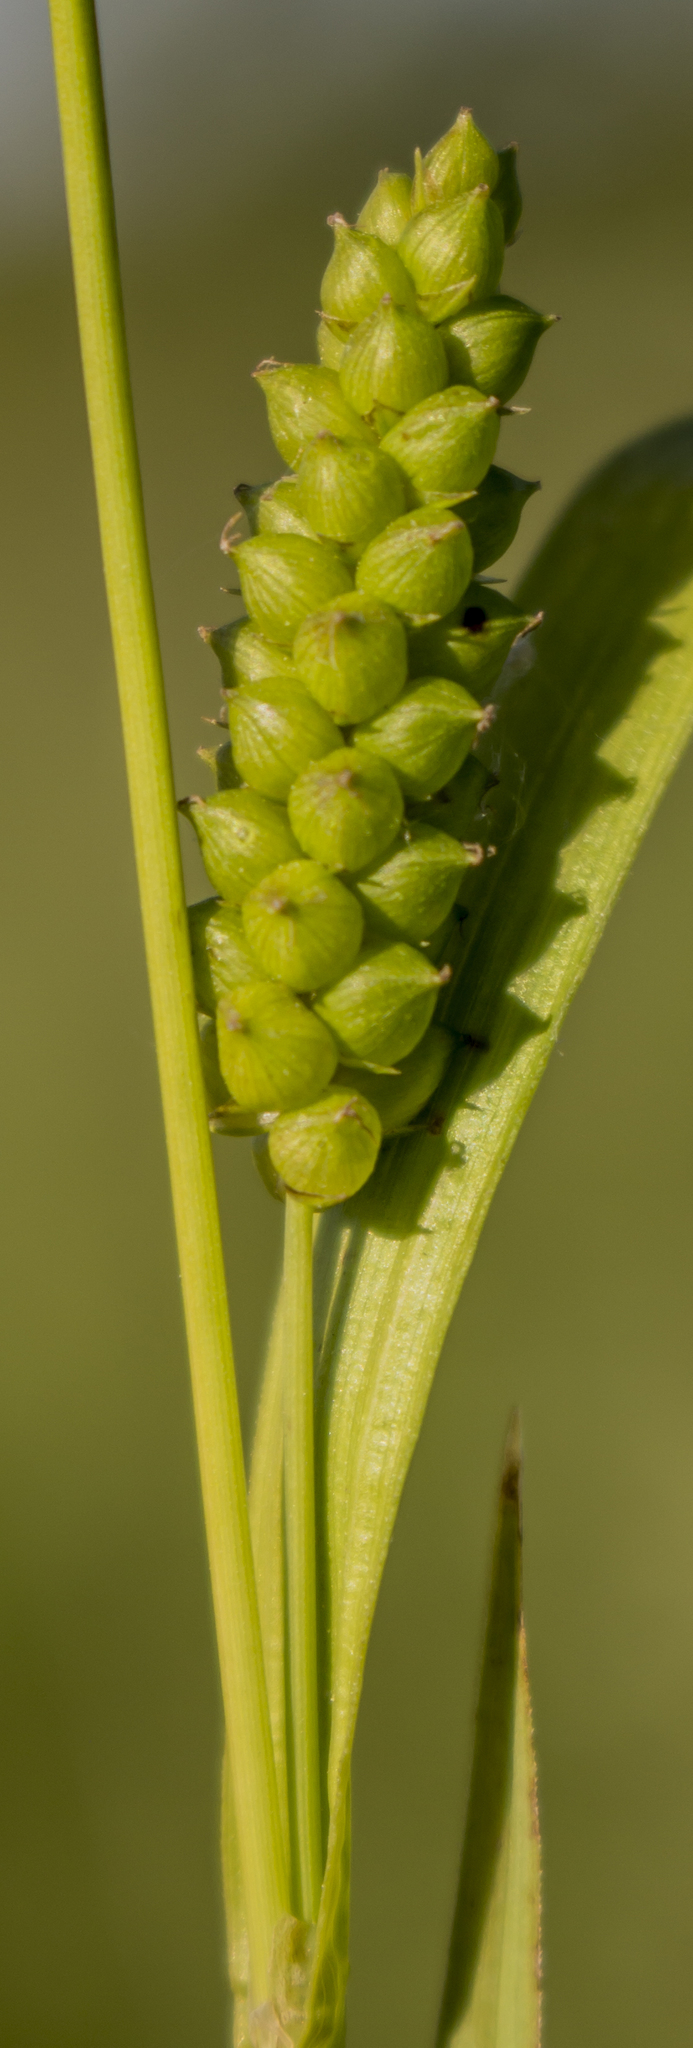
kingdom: Plantae
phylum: Tracheophyta
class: Liliopsida
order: Poales
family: Cyperaceae
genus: Carex
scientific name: Carex granularis
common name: Granular sedge
